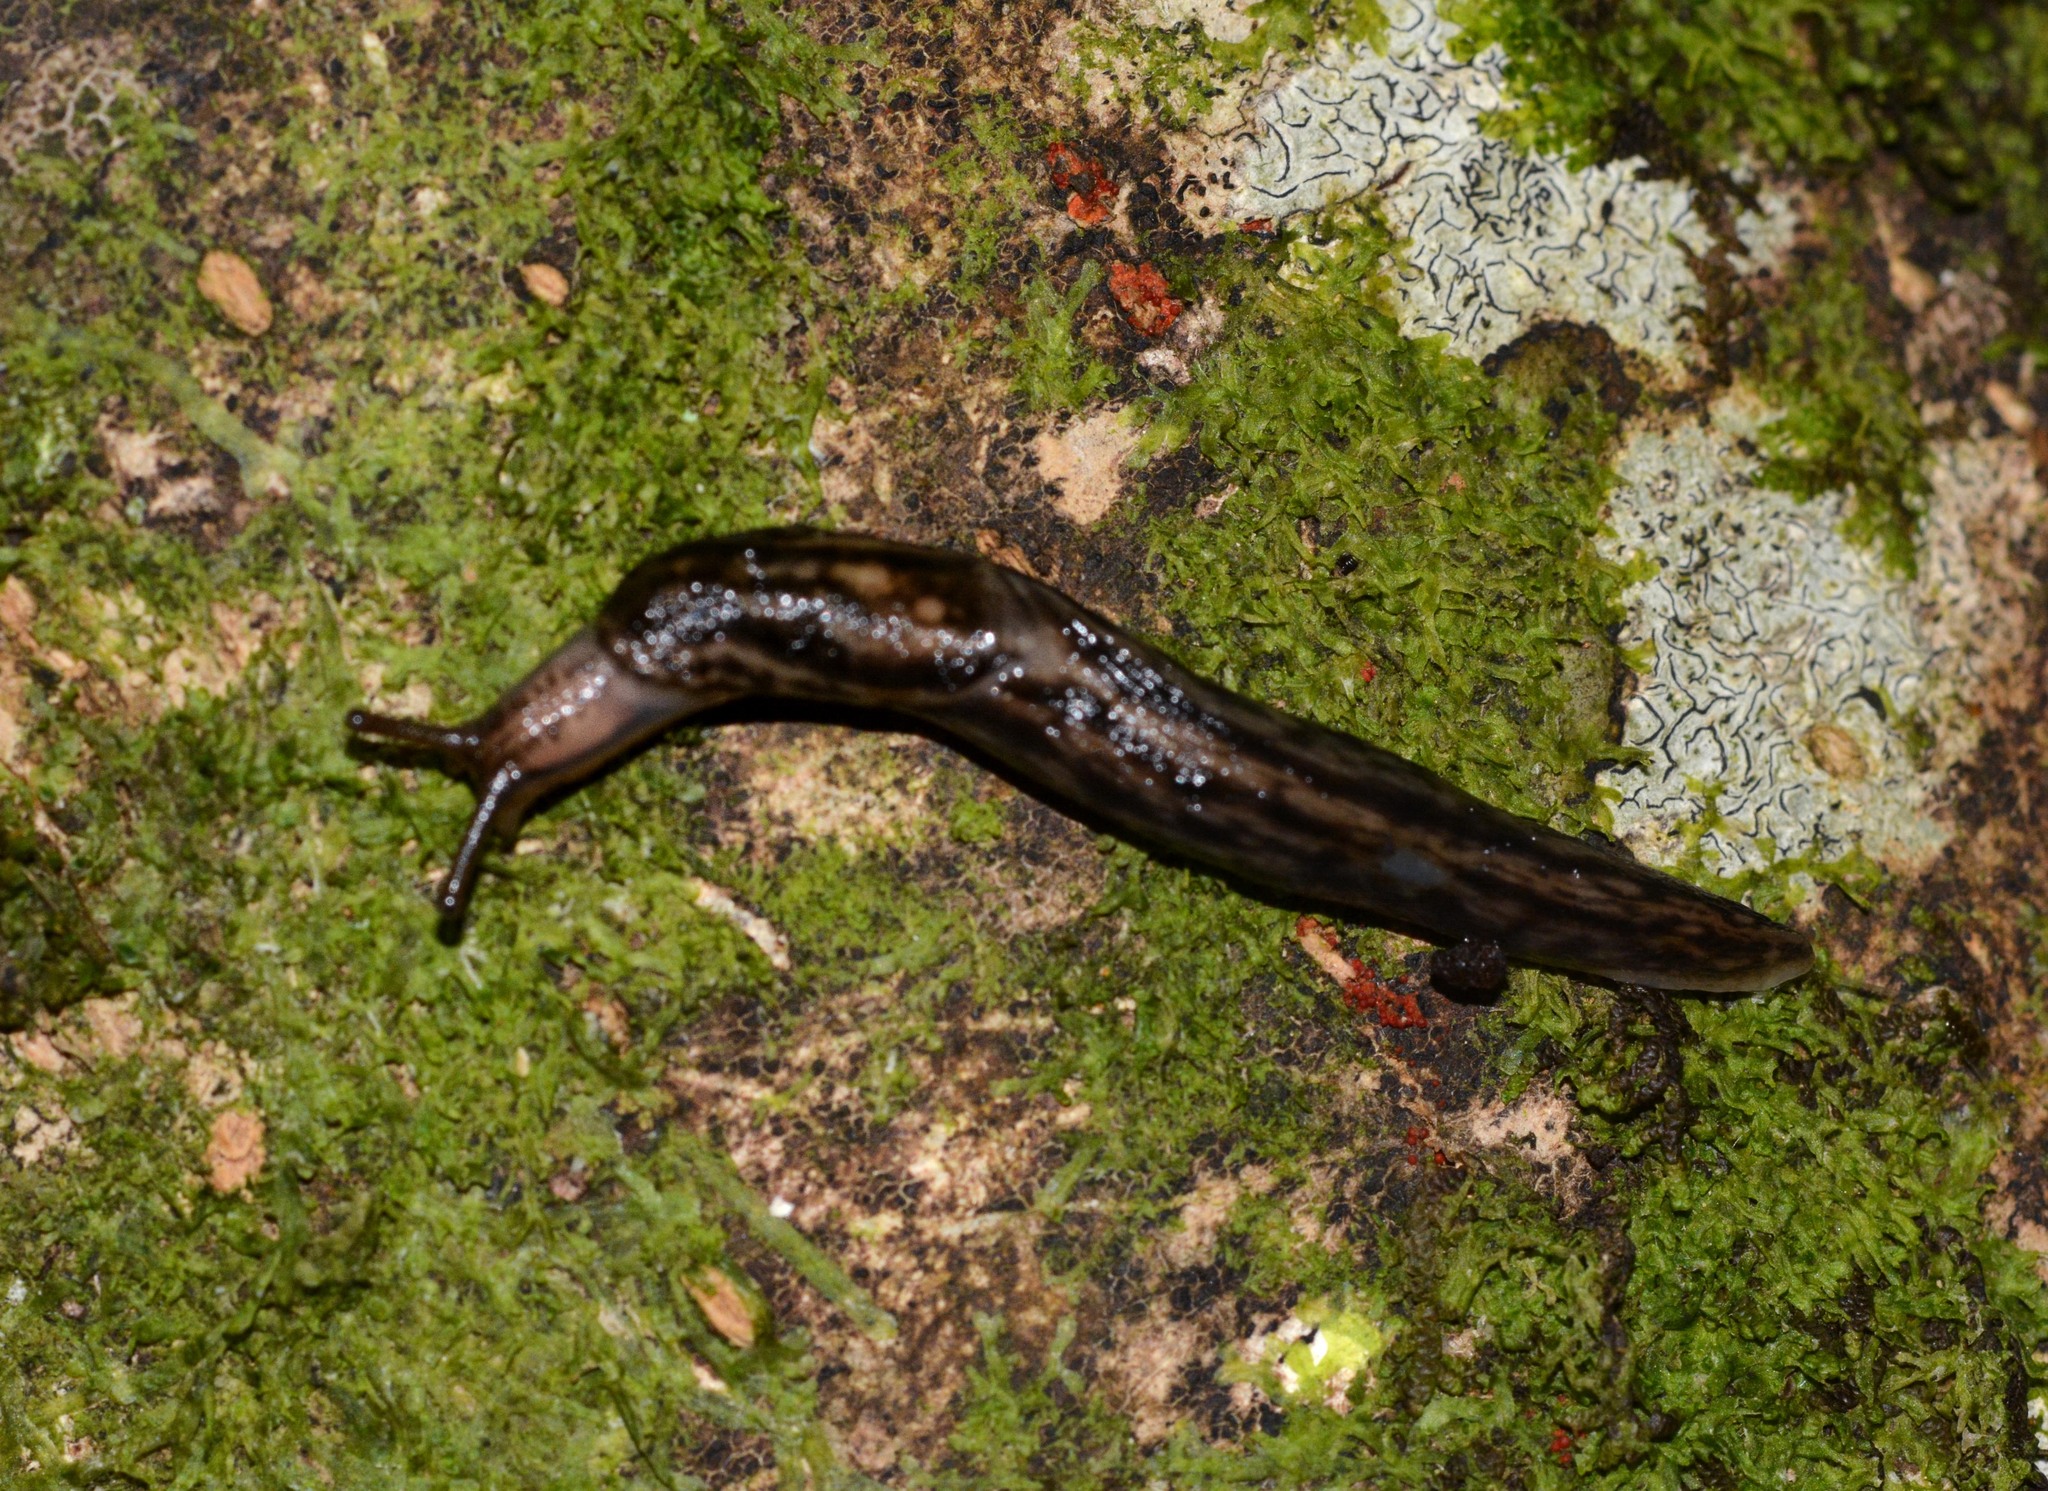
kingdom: Animalia
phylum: Mollusca
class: Gastropoda
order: Stylommatophora
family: Limacidae
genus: Lehmannia
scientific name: Lehmannia marginata
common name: Tree slug
